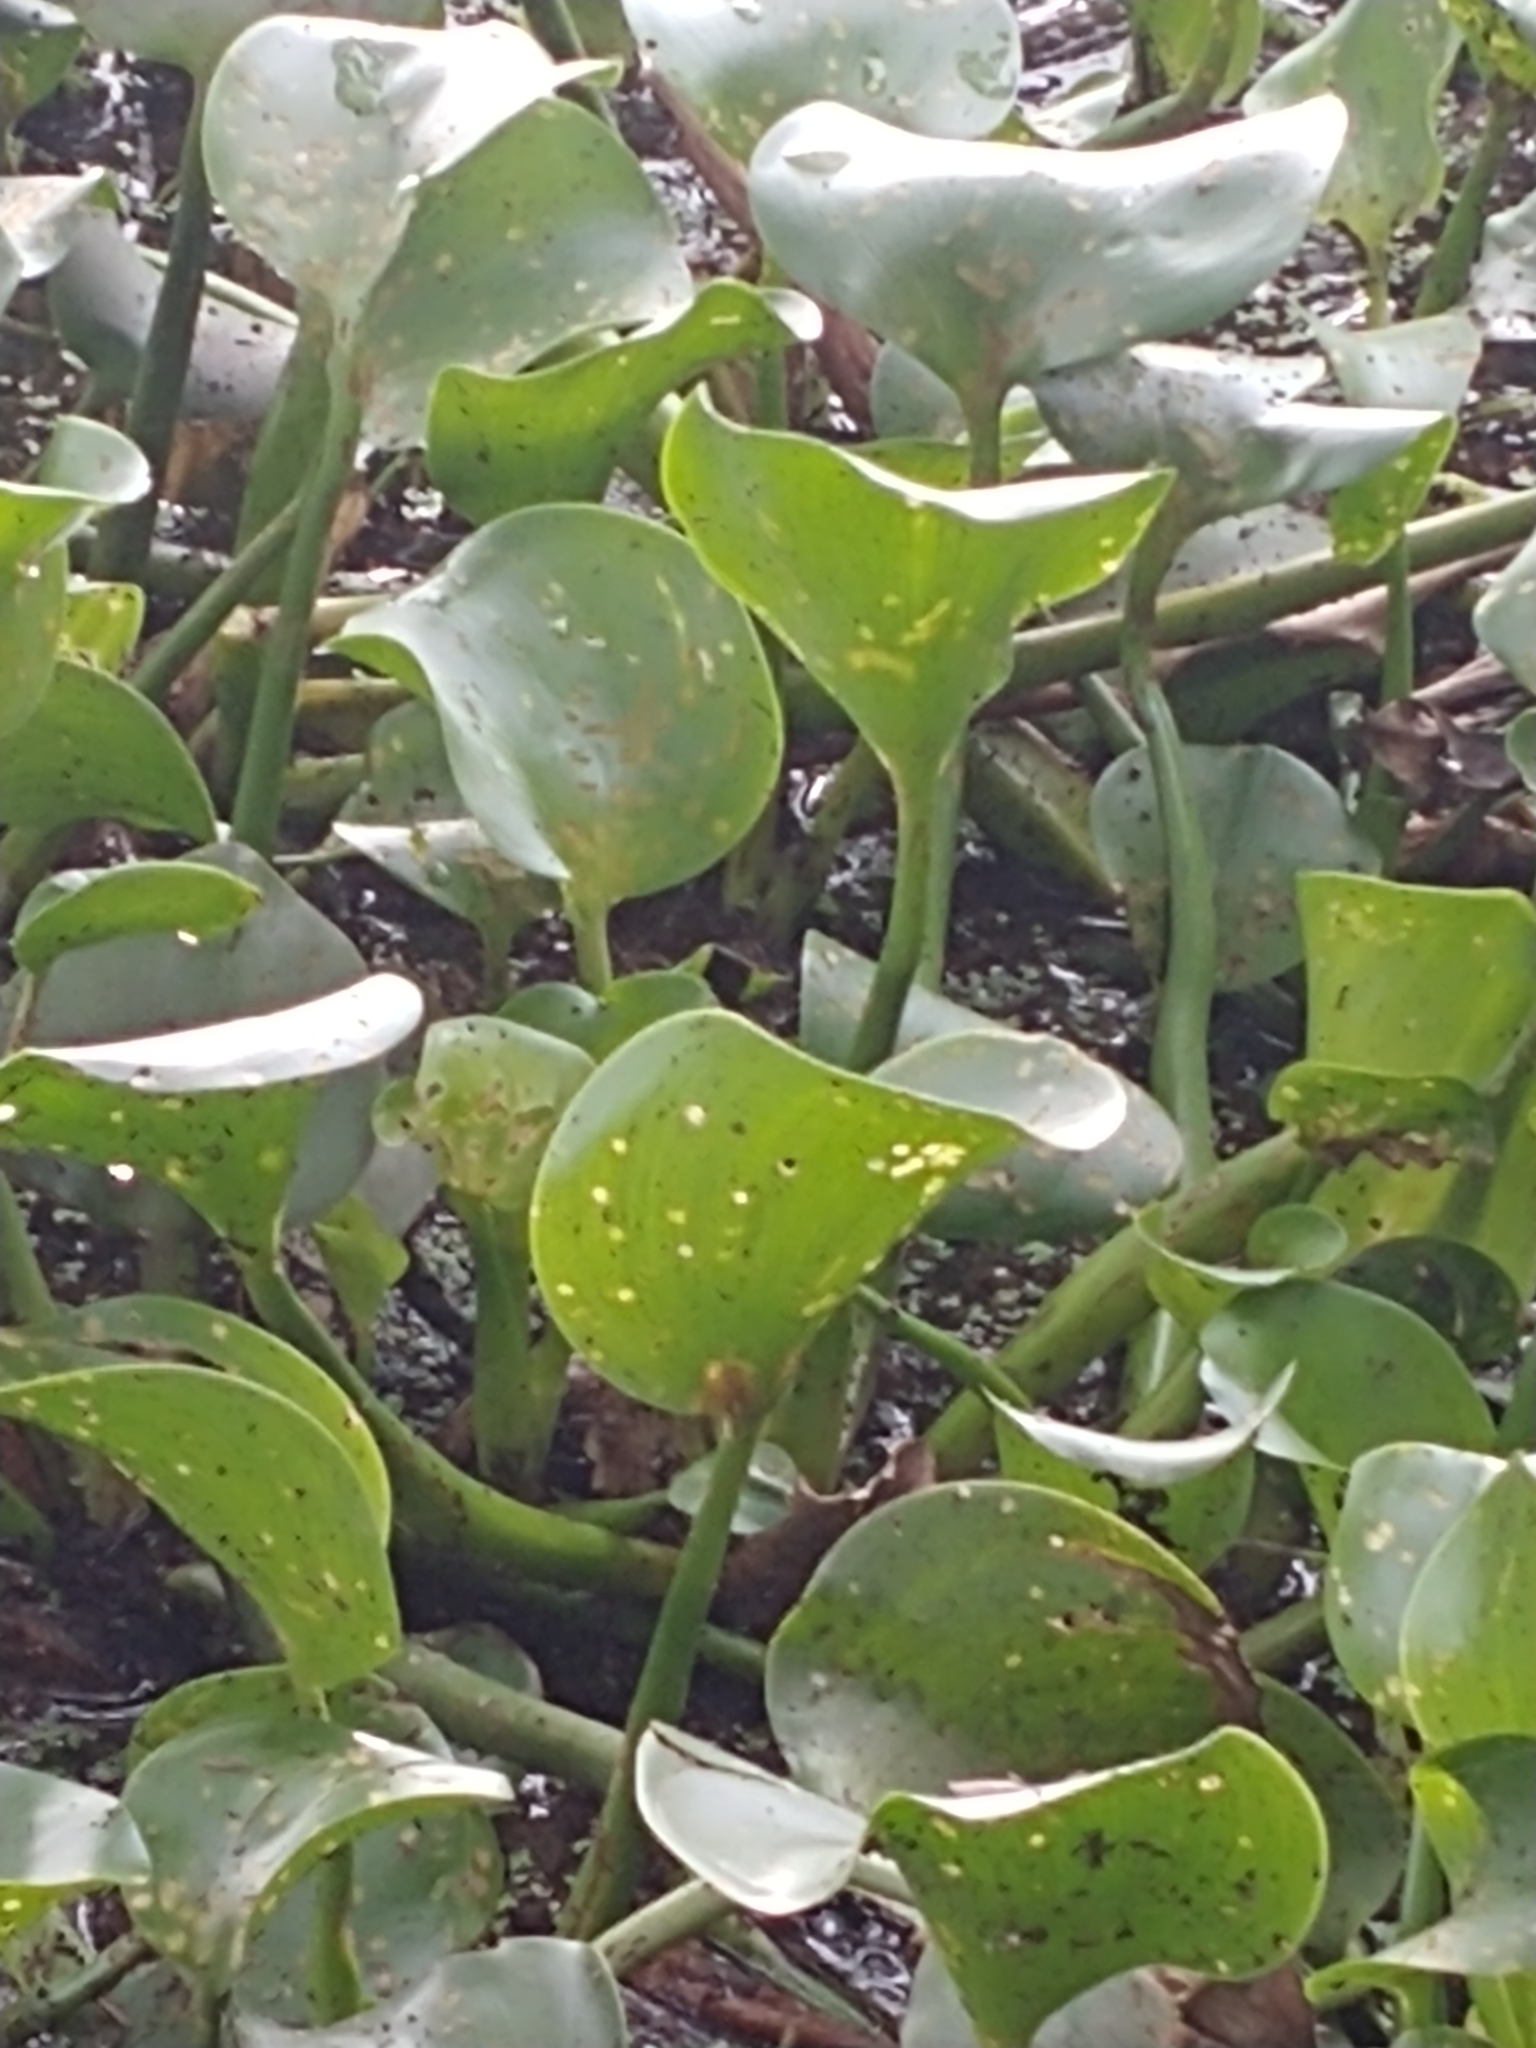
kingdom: Plantae
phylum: Tracheophyta
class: Liliopsida
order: Commelinales
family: Pontederiaceae
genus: Pontederia
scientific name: Pontederia crassipes
